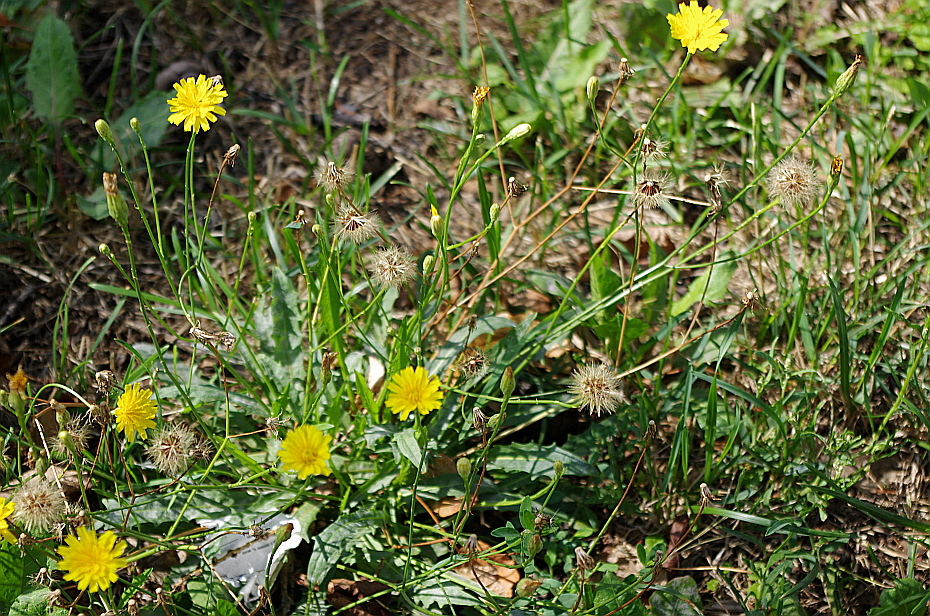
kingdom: Plantae
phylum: Tracheophyta
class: Magnoliopsida
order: Asterales
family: Asteraceae
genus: Scorzoneroides
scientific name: Scorzoneroides autumnalis
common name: Autumn hawkbit
